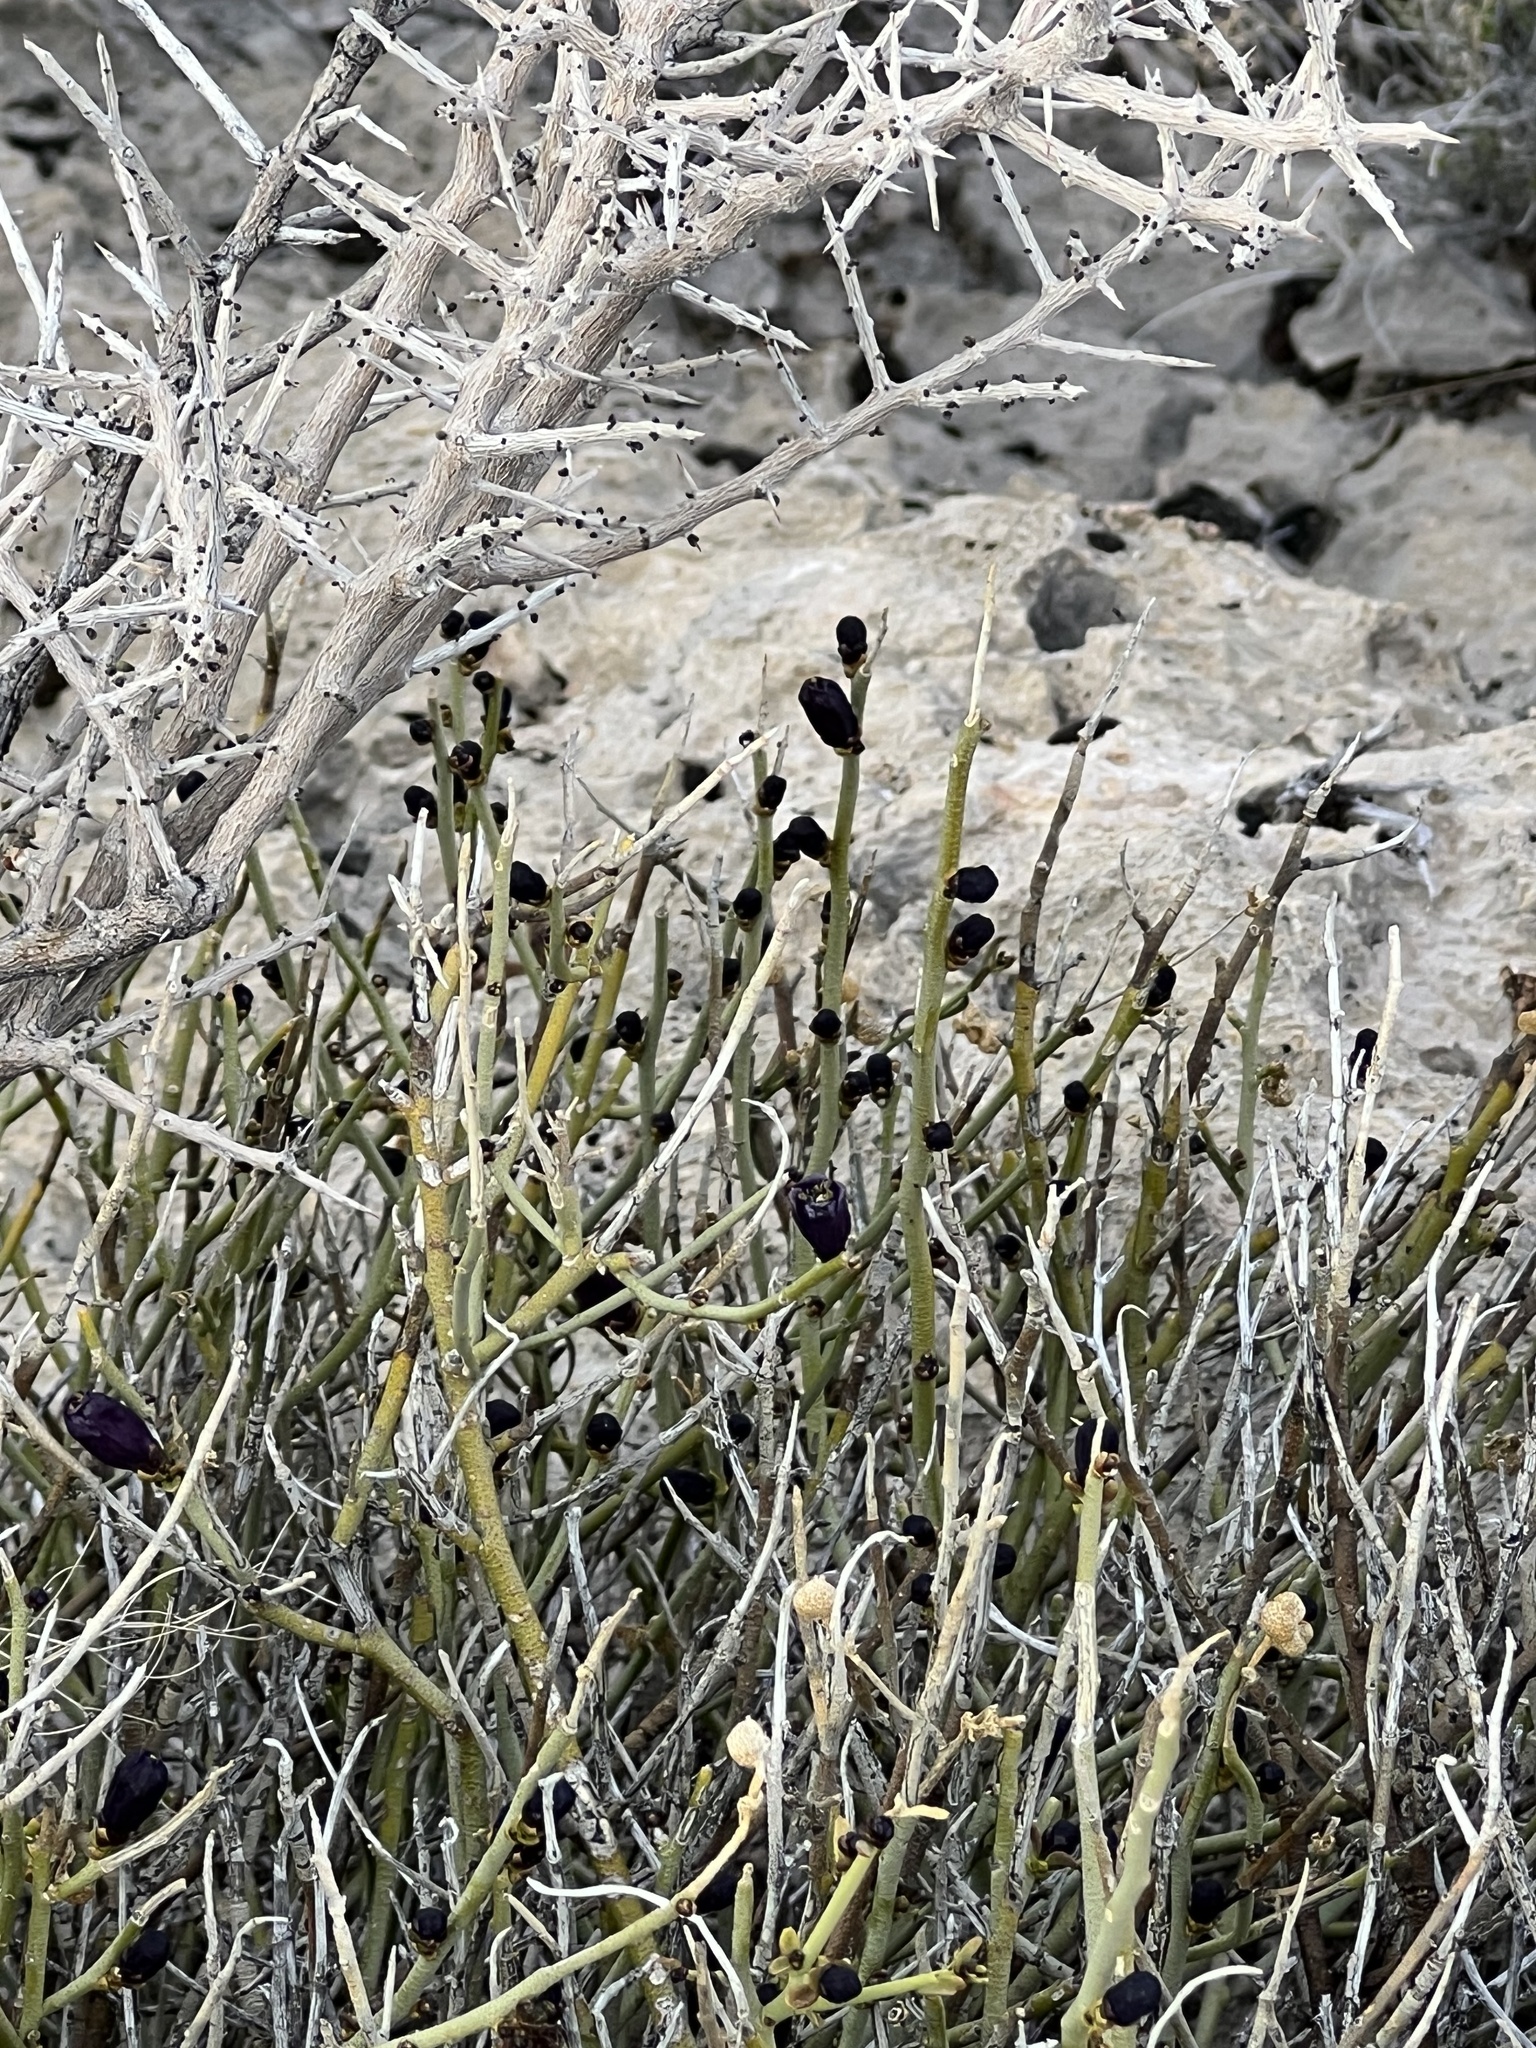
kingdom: Plantae
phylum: Tracheophyta
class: Magnoliopsida
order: Sapindales
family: Rutaceae
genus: Thamnosma
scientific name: Thamnosma montana
